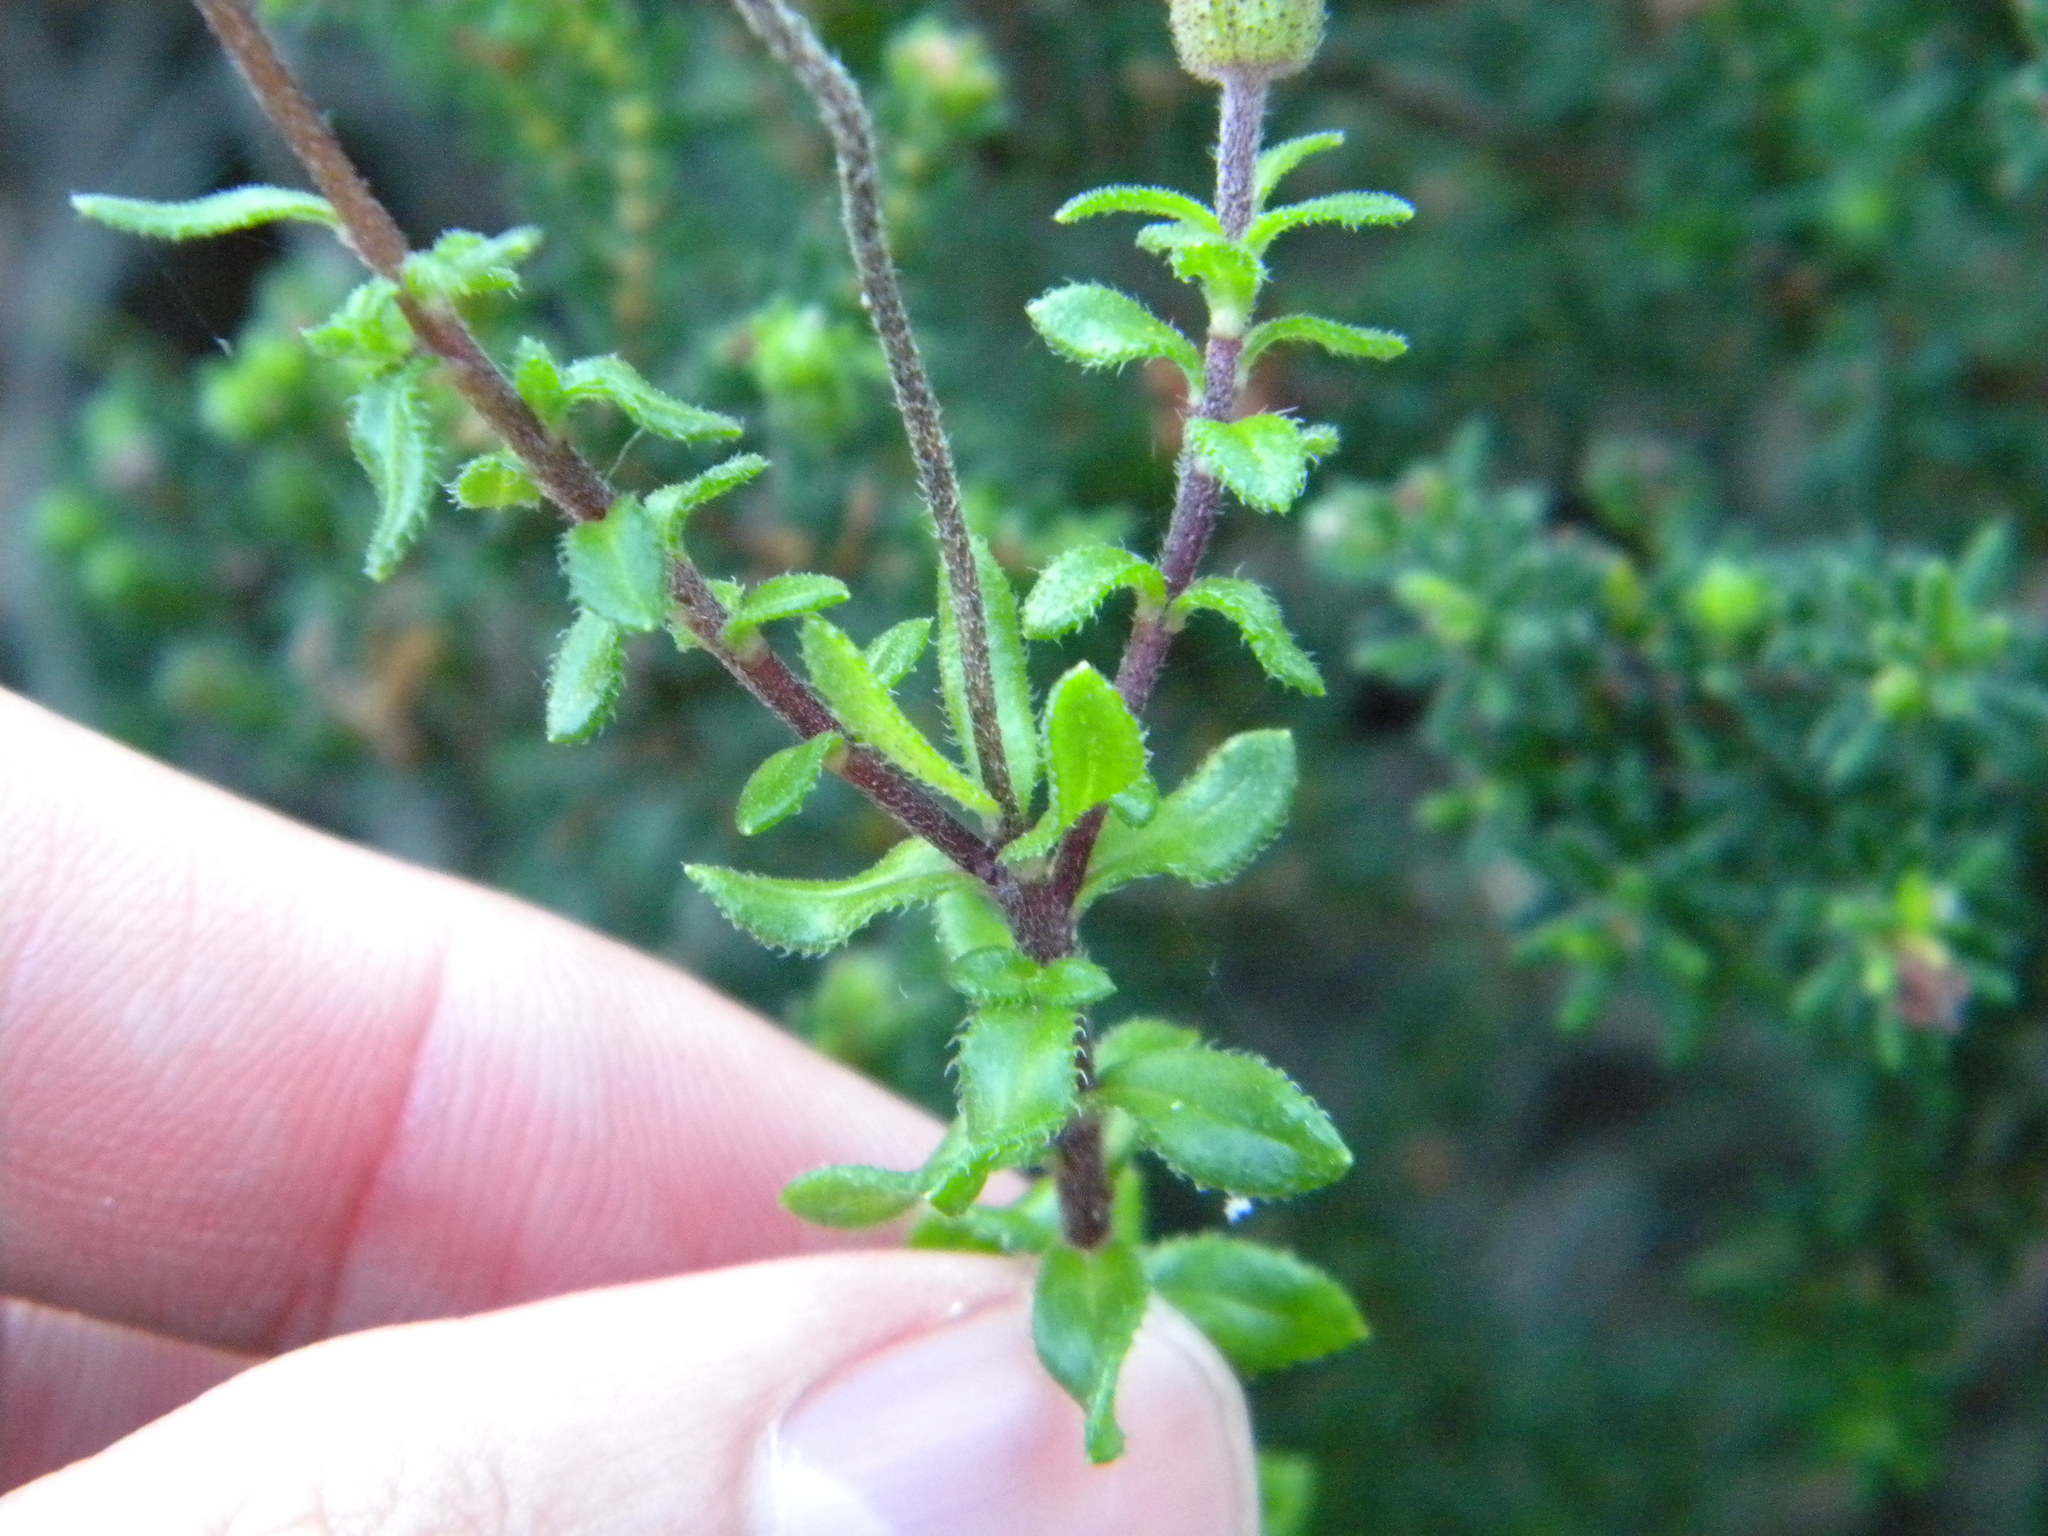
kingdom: Plantae
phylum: Tracheophyta
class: Magnoliopsida
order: Asterales
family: Asteraceae
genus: Felicia
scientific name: Felicia aethiopica
